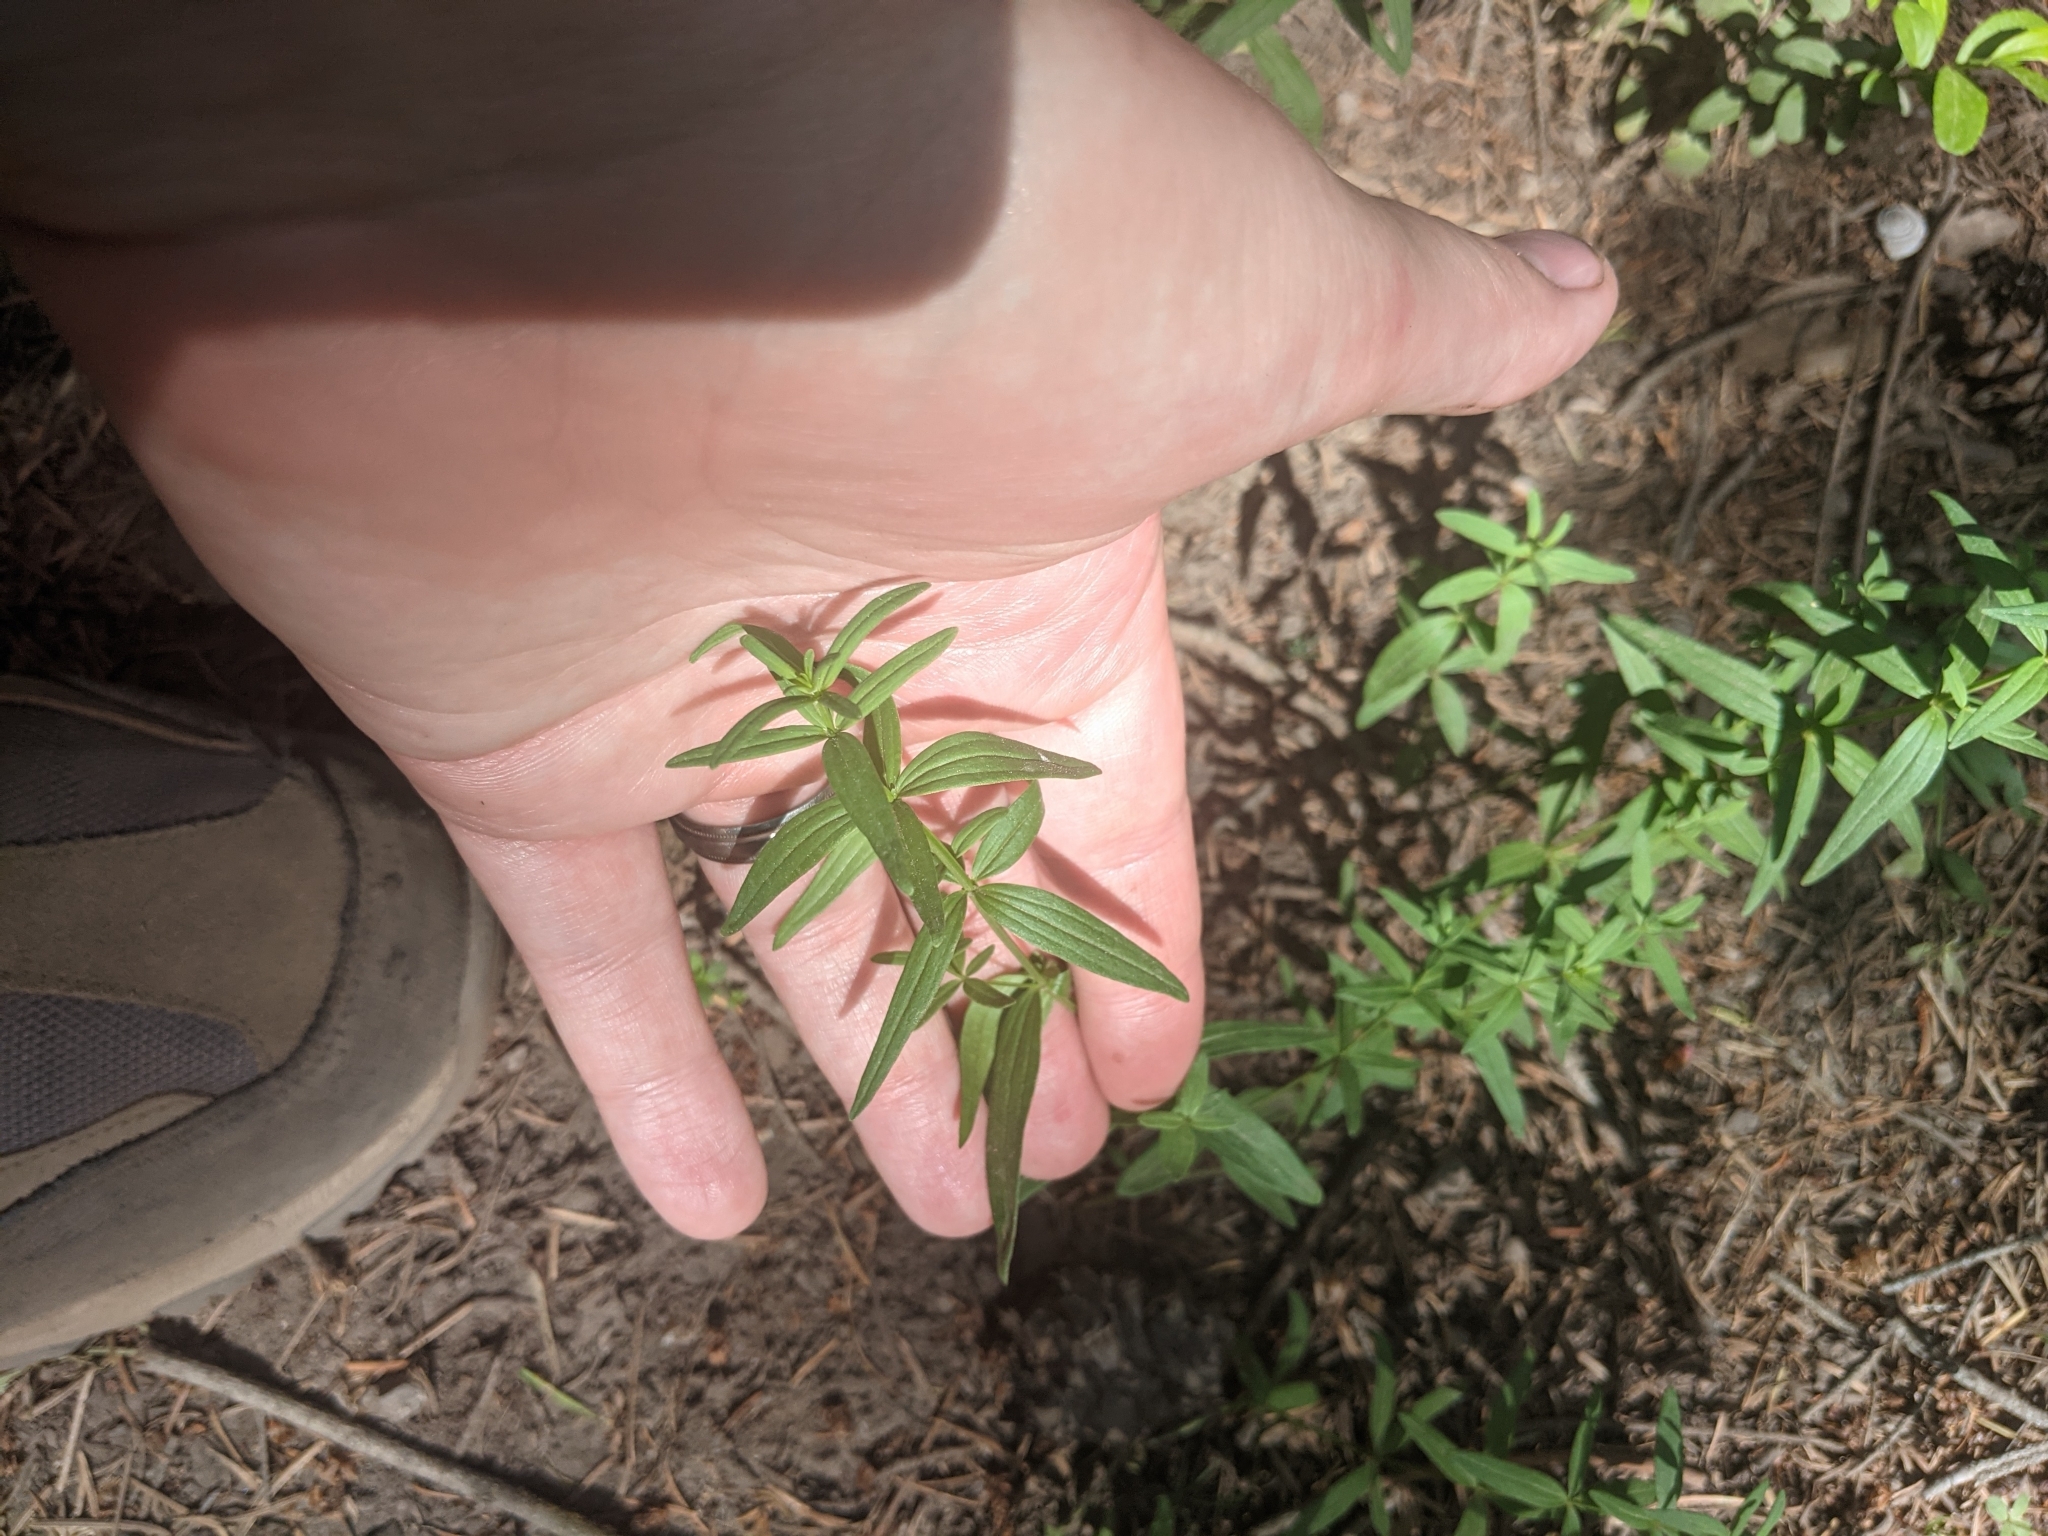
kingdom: Plantae
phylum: Tracheophyta
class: Magnoliopsida
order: Gentianales
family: Rubiaceae
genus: Galium
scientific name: Galium boreale
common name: Northern bedstraw
